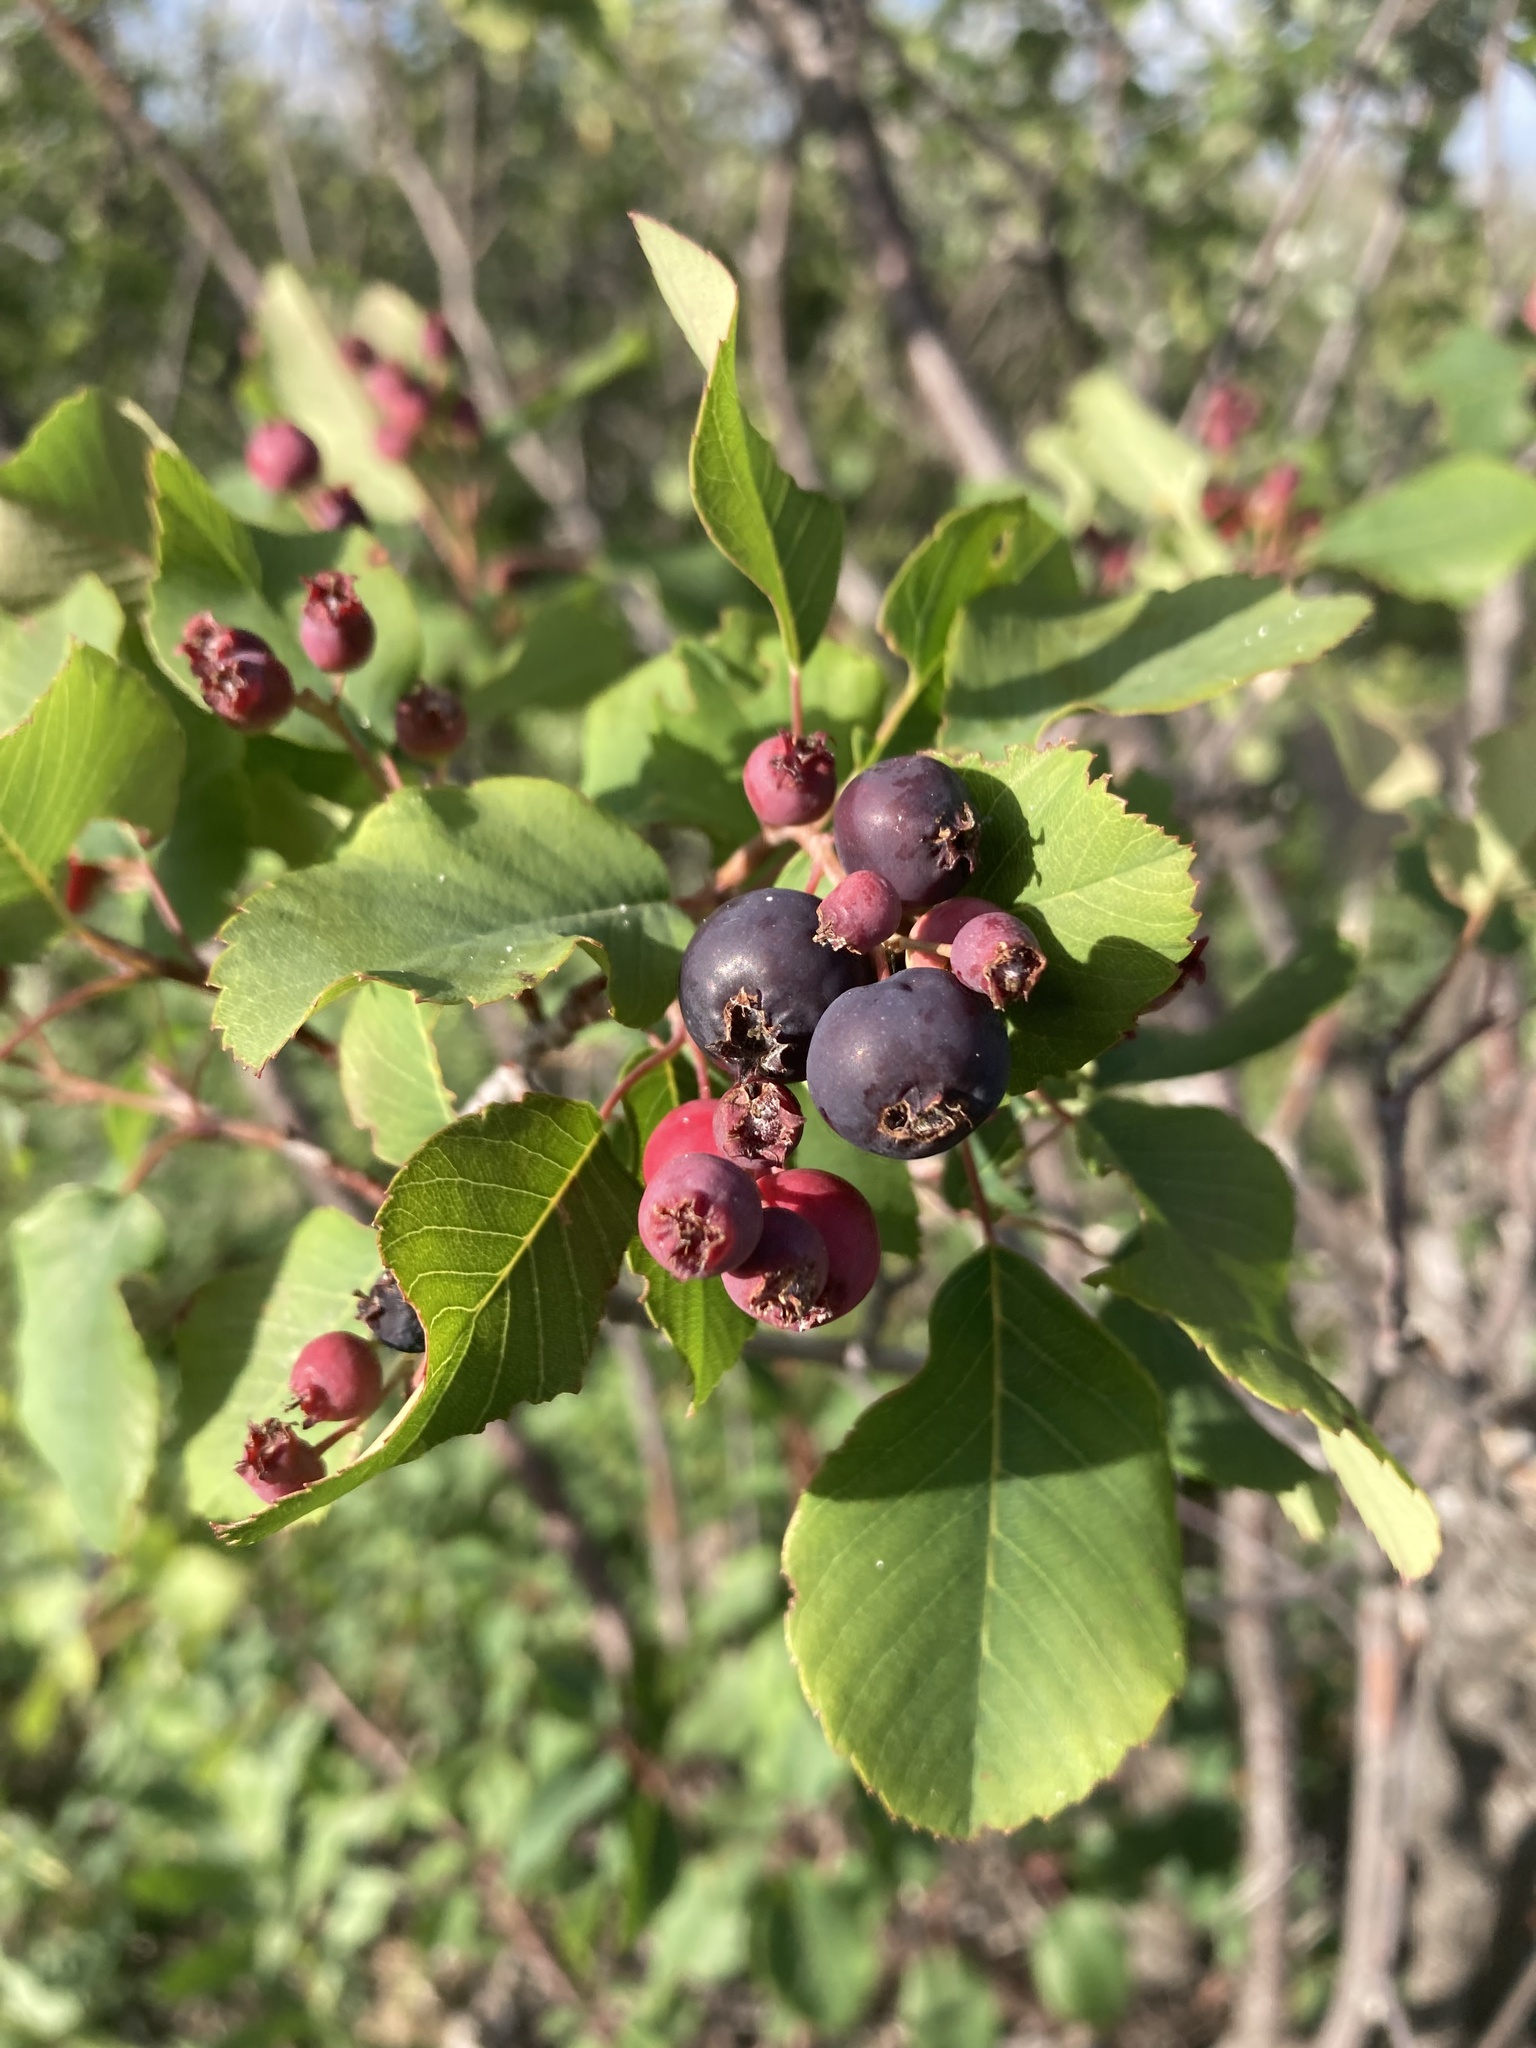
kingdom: Plantae
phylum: Tracheophyta
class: Magnoliopsida
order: Rosales
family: Rosaceae
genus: Amelanchier
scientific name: Amelanchier alnifolia
